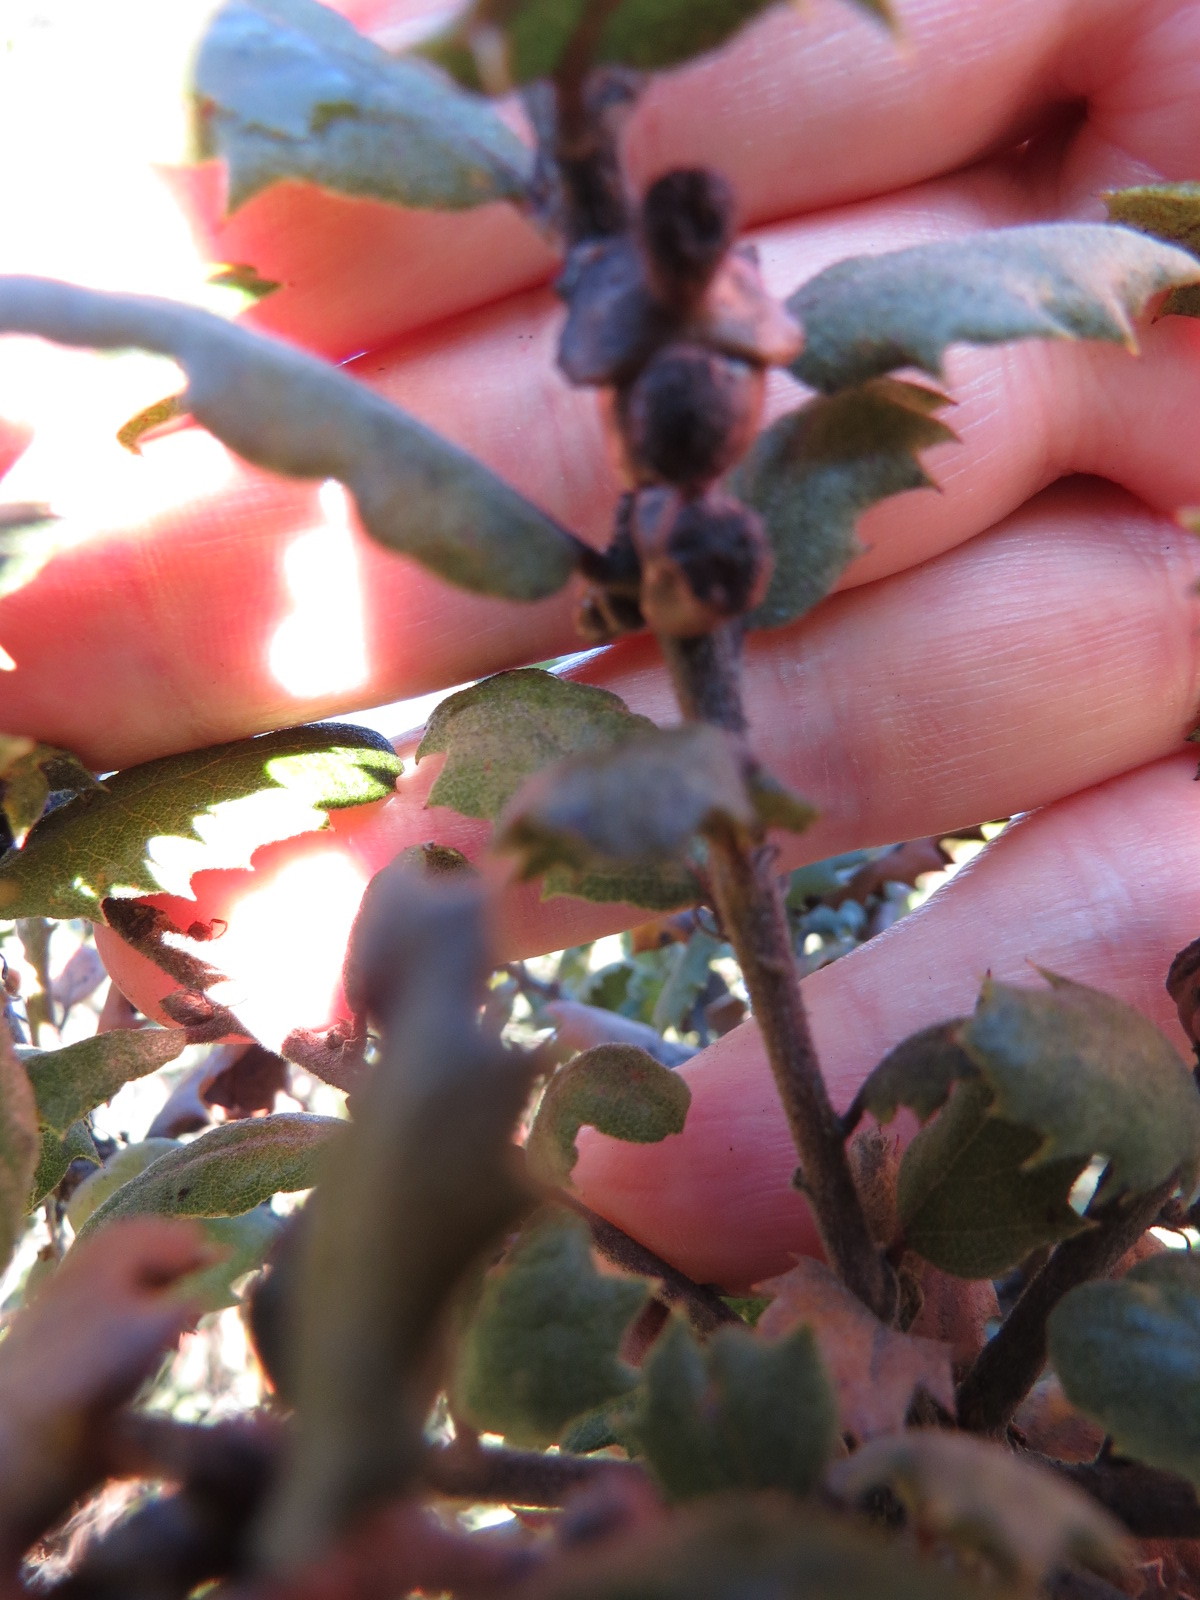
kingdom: Animalia
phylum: Arthropoda
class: Insecta
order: Hymenoptera
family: Cynipidae
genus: Disholcaspis
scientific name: Disholcaspis prehensa
